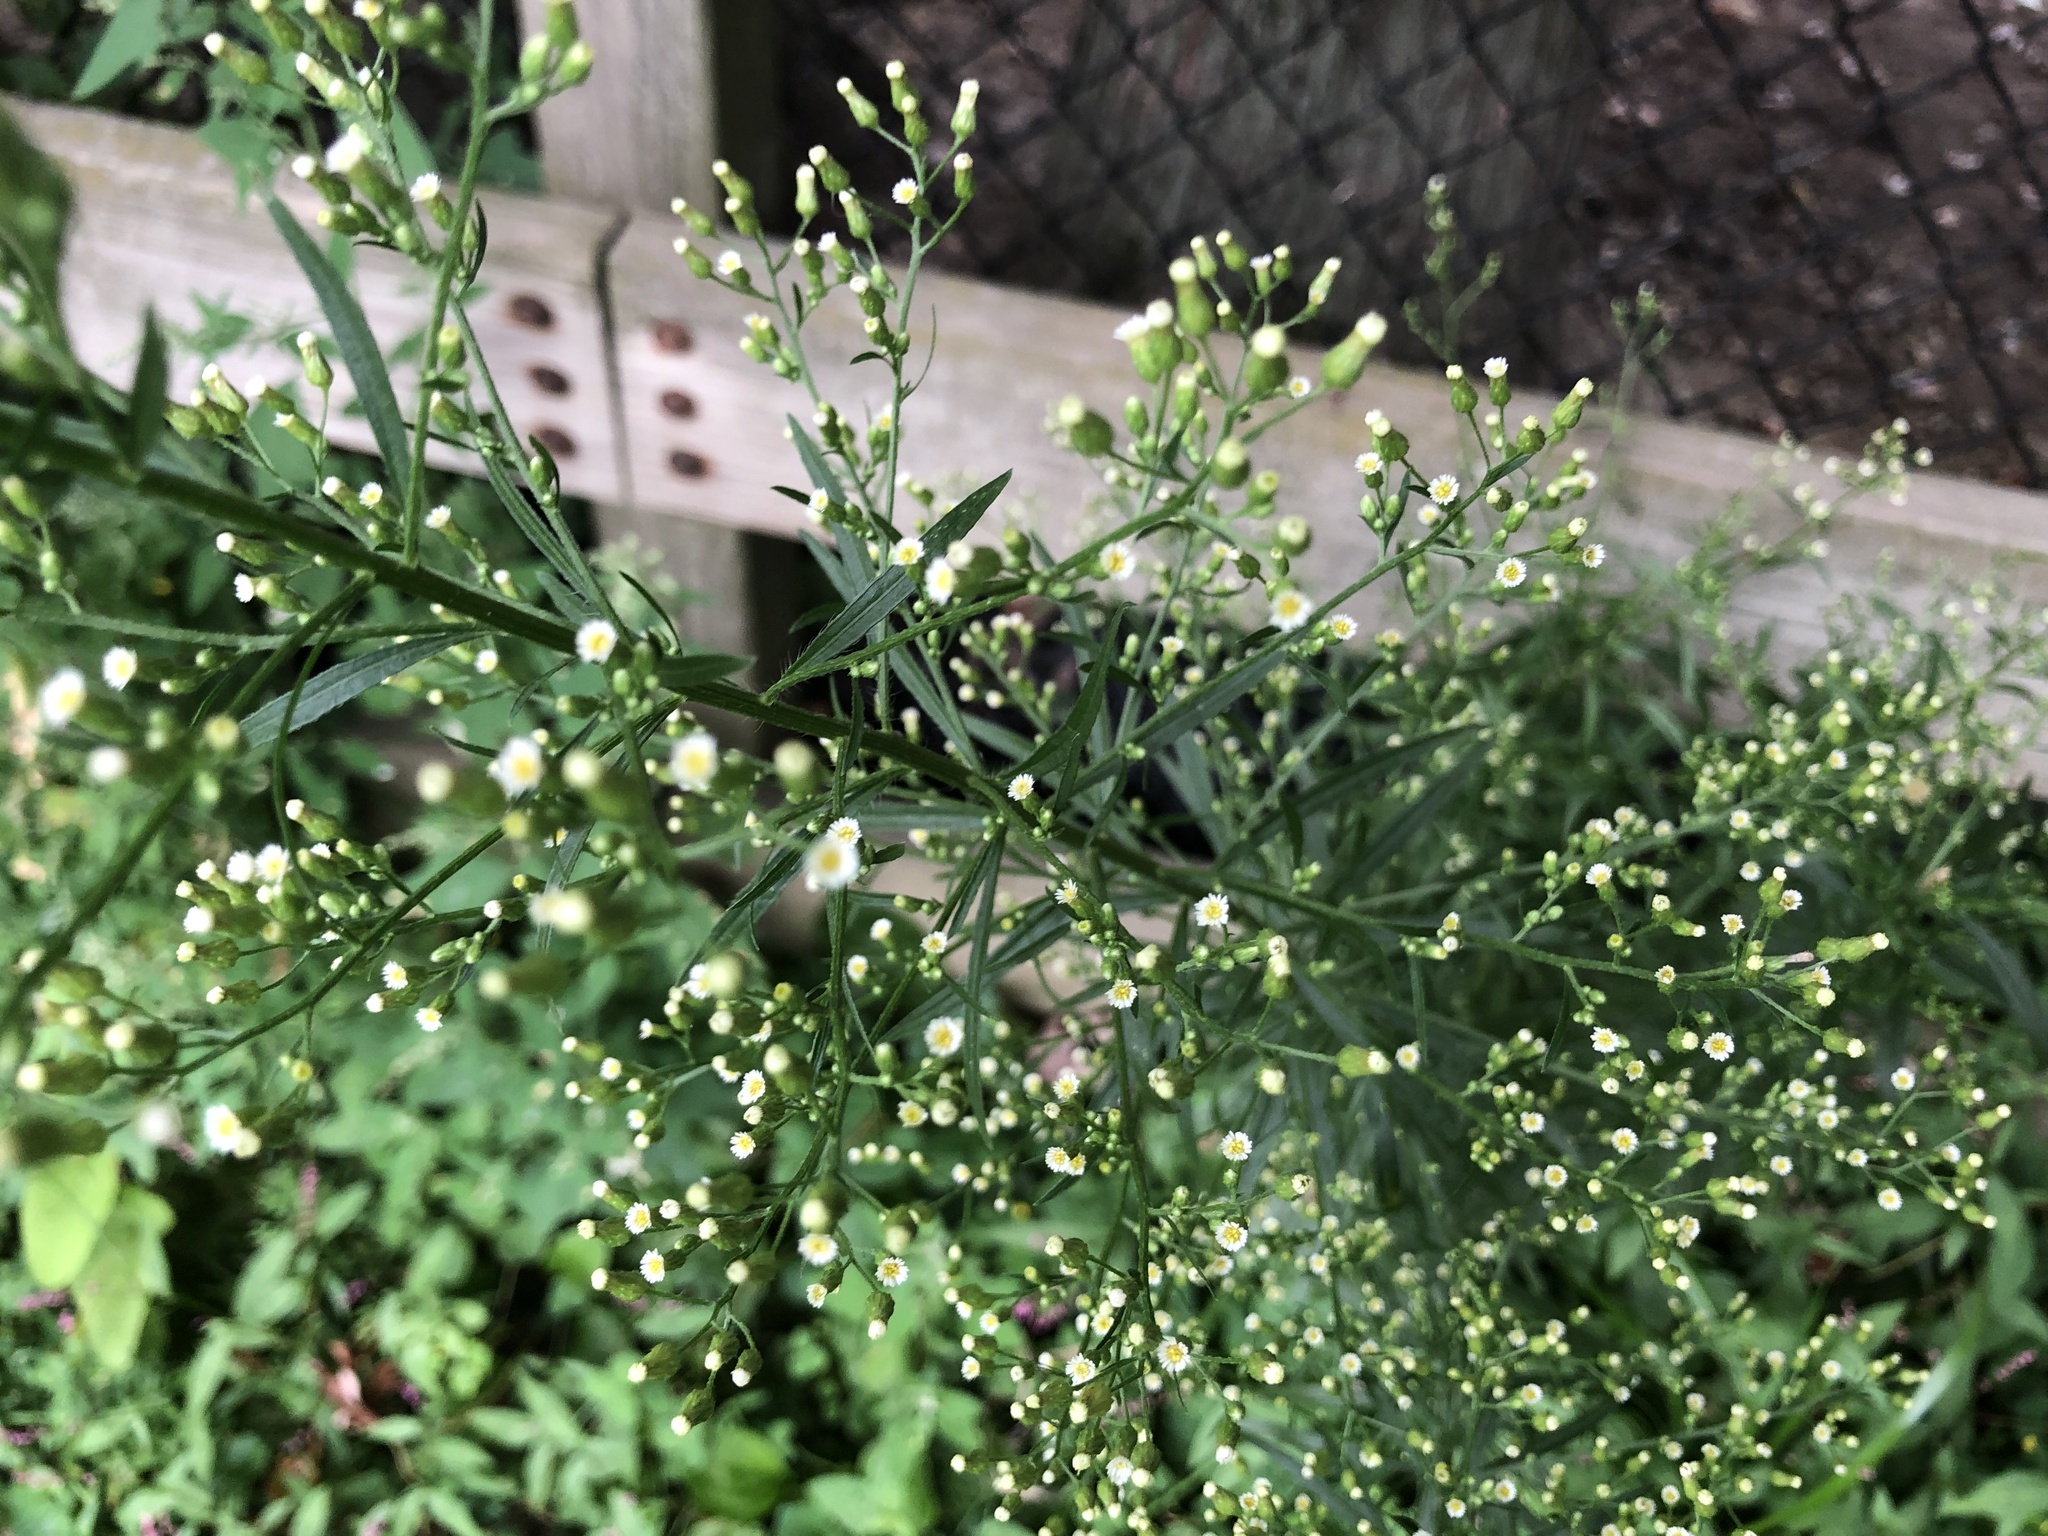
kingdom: Plantae
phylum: Tracheophyta
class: Magnoliopsida
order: Asterales
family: Asteraceae
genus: Erigeron
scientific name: Erigeron canadensis
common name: Canadian fleabane
